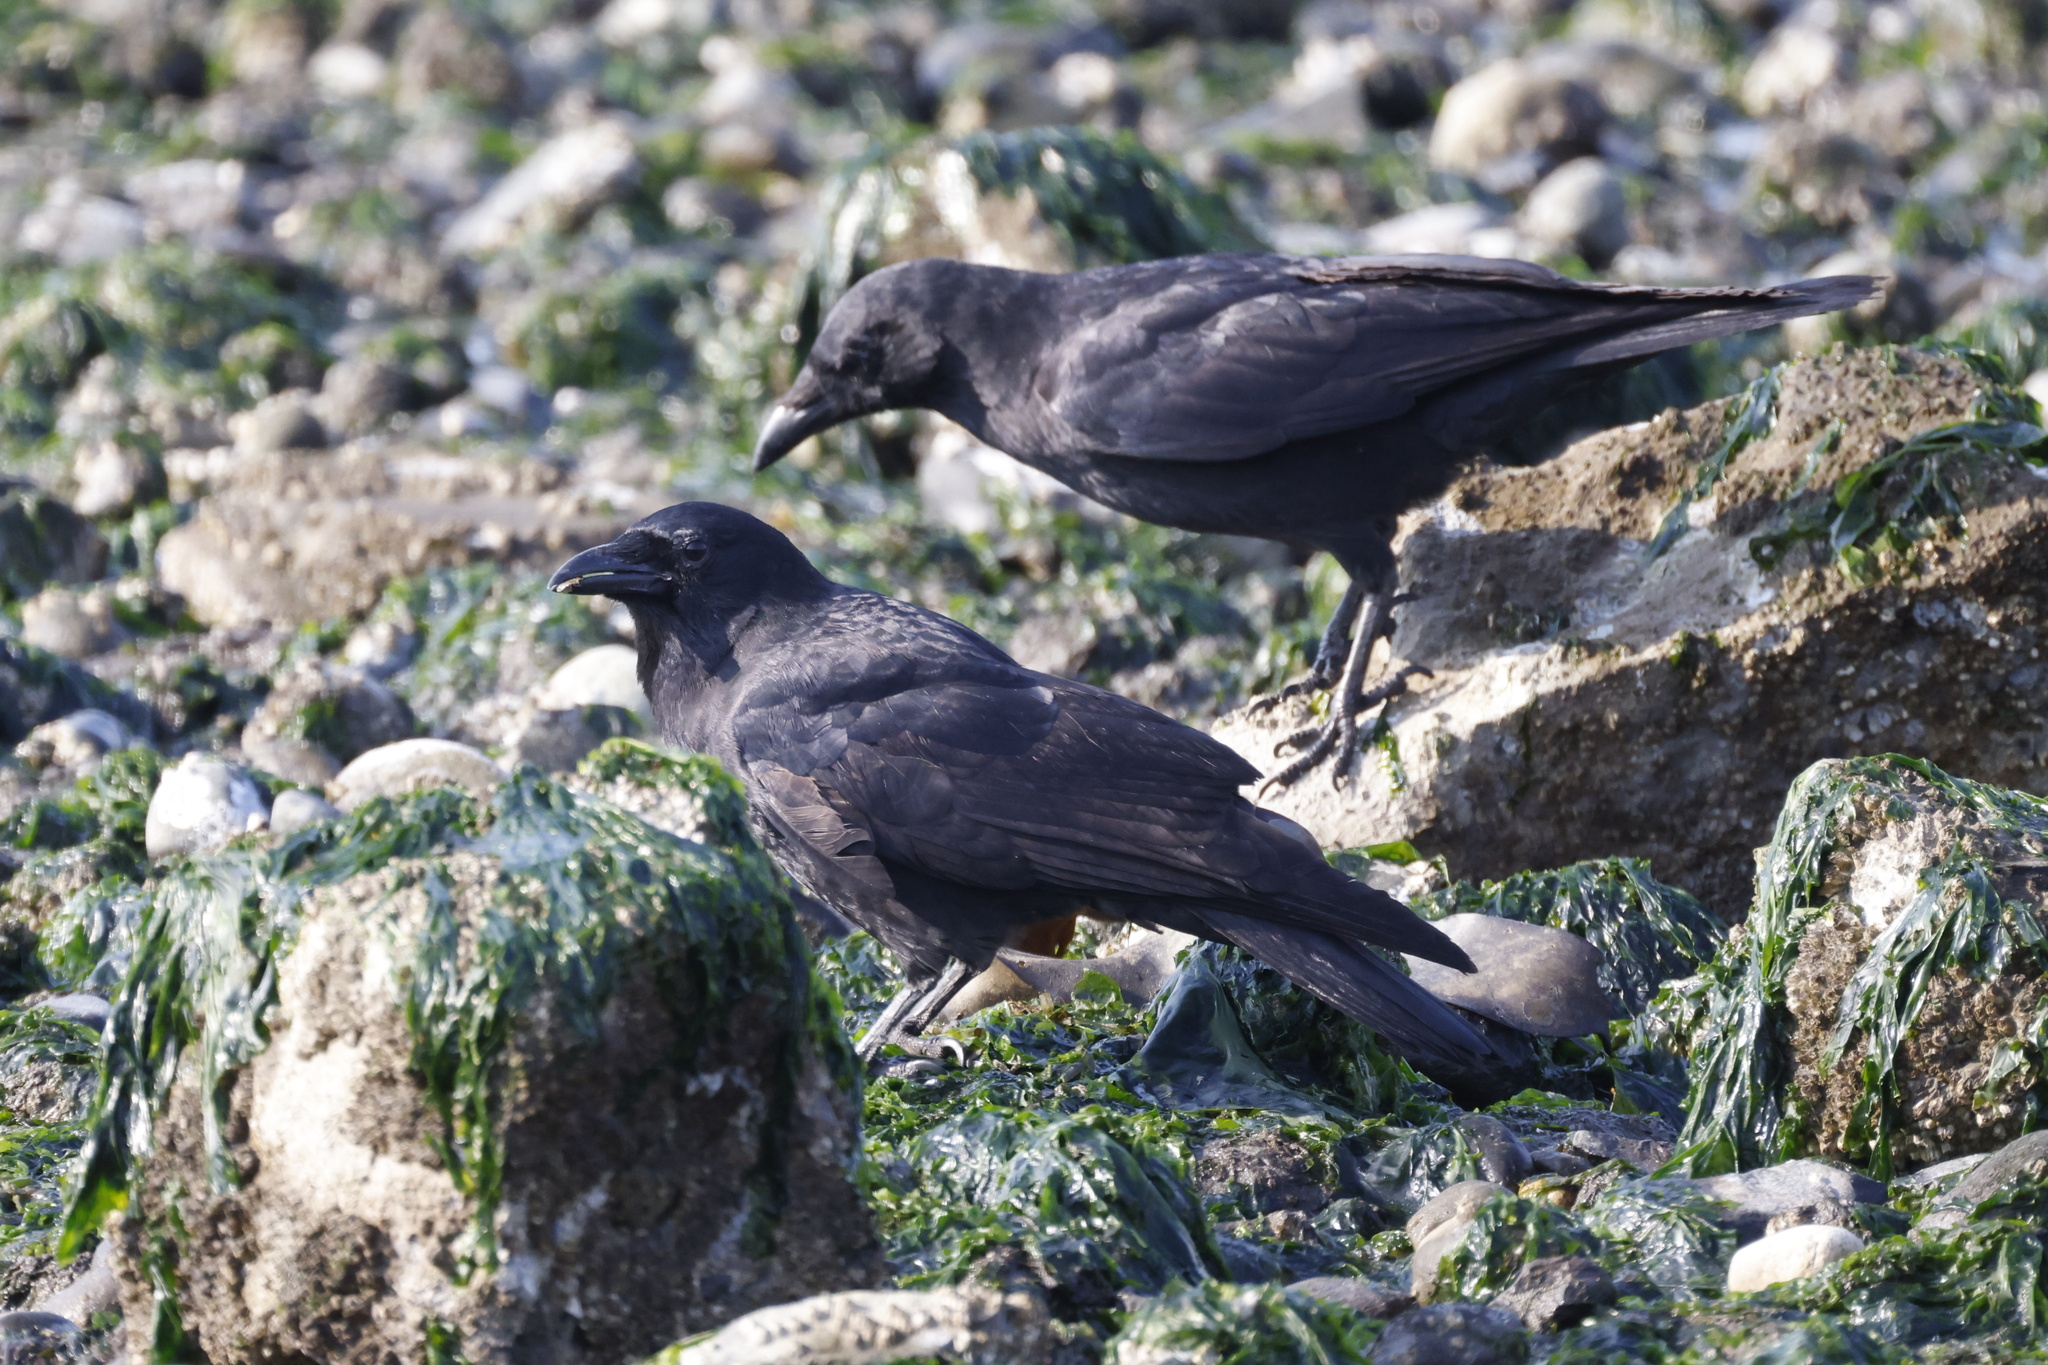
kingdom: Animalia
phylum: Chordata
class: Aves
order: Passeriformes
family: Corvidae
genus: Corvus
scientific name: Corvus brachyrhynchos
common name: American crow
